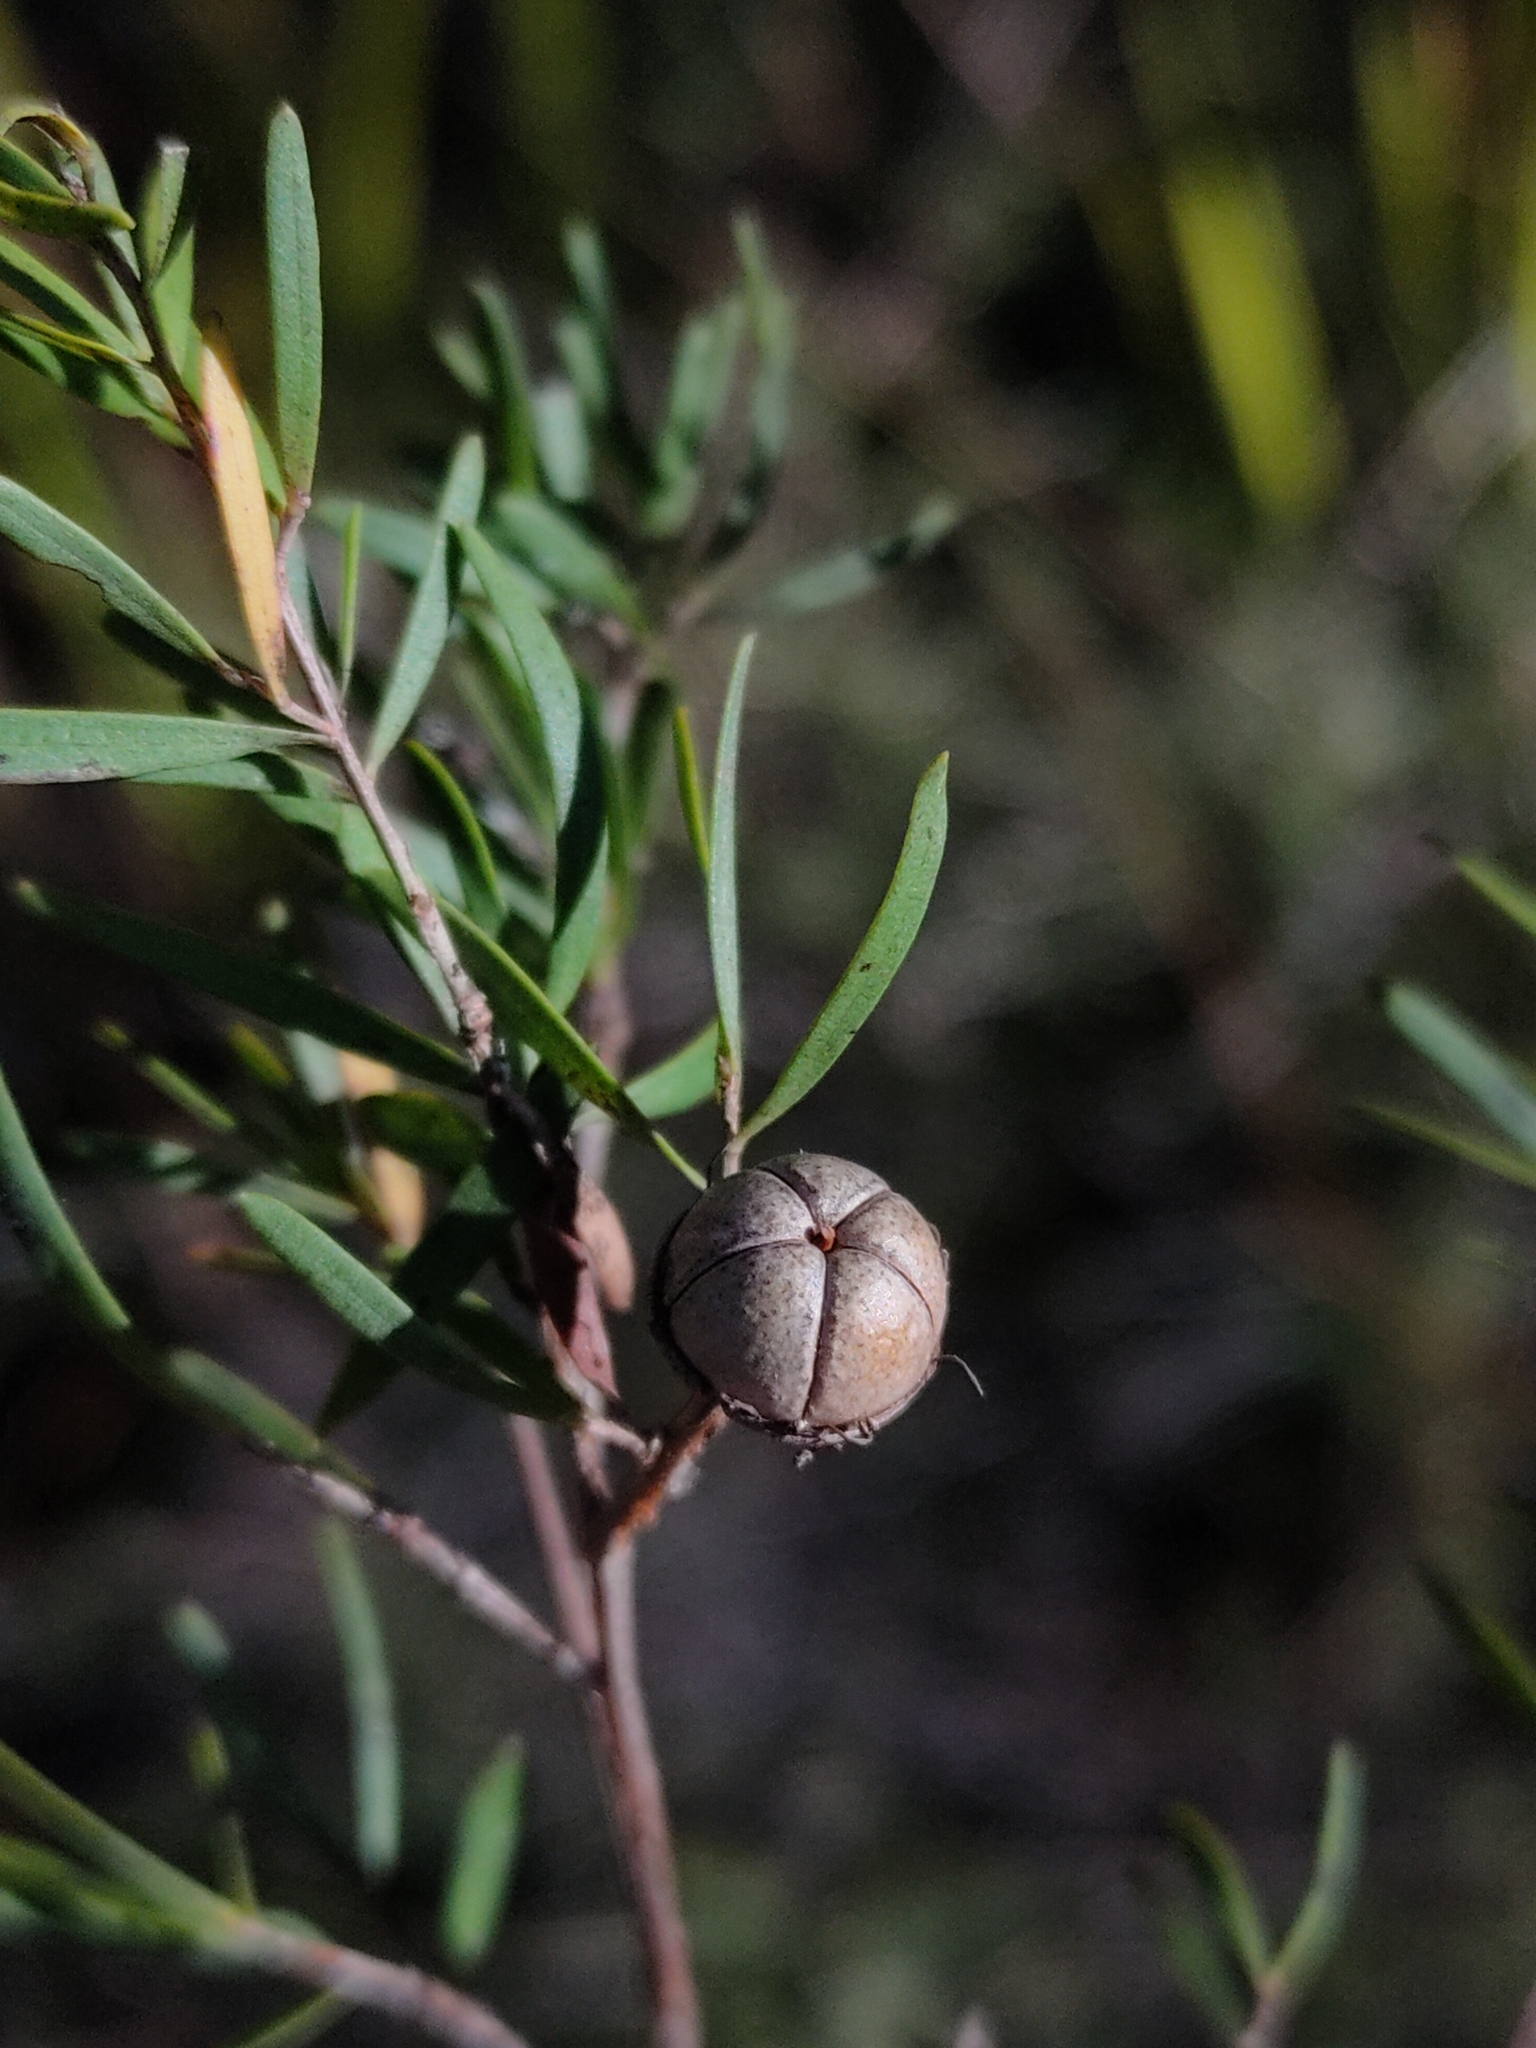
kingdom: Plantae
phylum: Tracheophyta
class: Magnoliopsida
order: Myrtales
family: Myrtaceae
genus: Leptospermum
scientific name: Leptospermum polygalifolium
